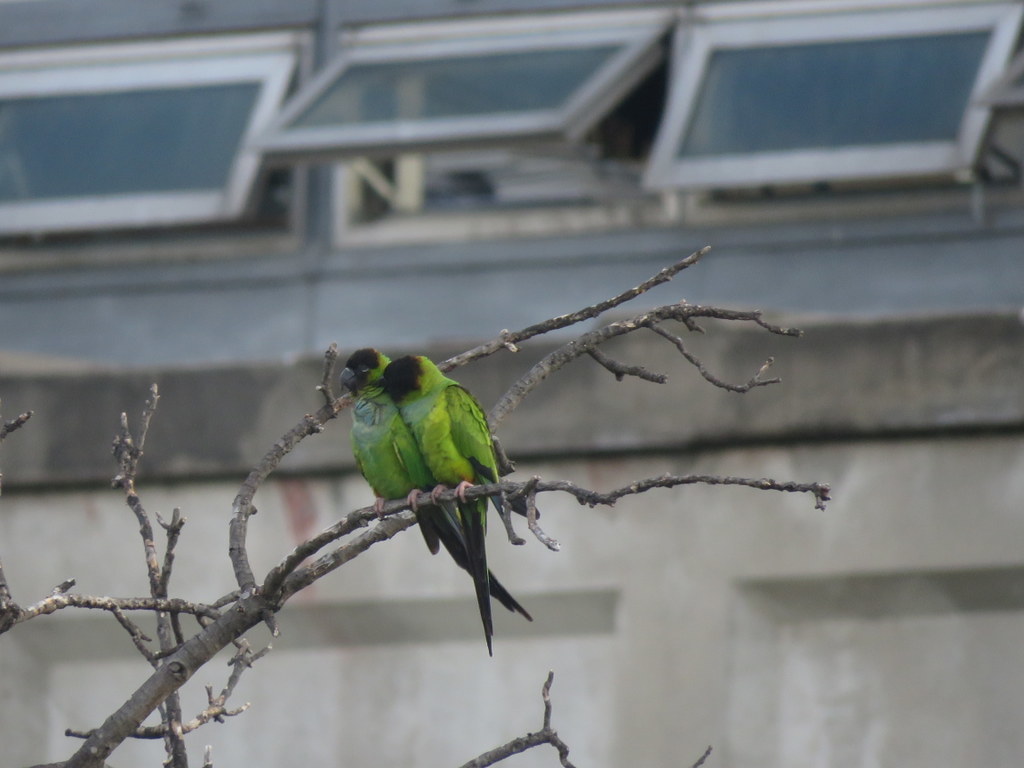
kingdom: Animalia
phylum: Chordata
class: Aves
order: Psittaciformes
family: Psittacidae
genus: Nandayus
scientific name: Nandayus nenday
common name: Nanday parakeet
